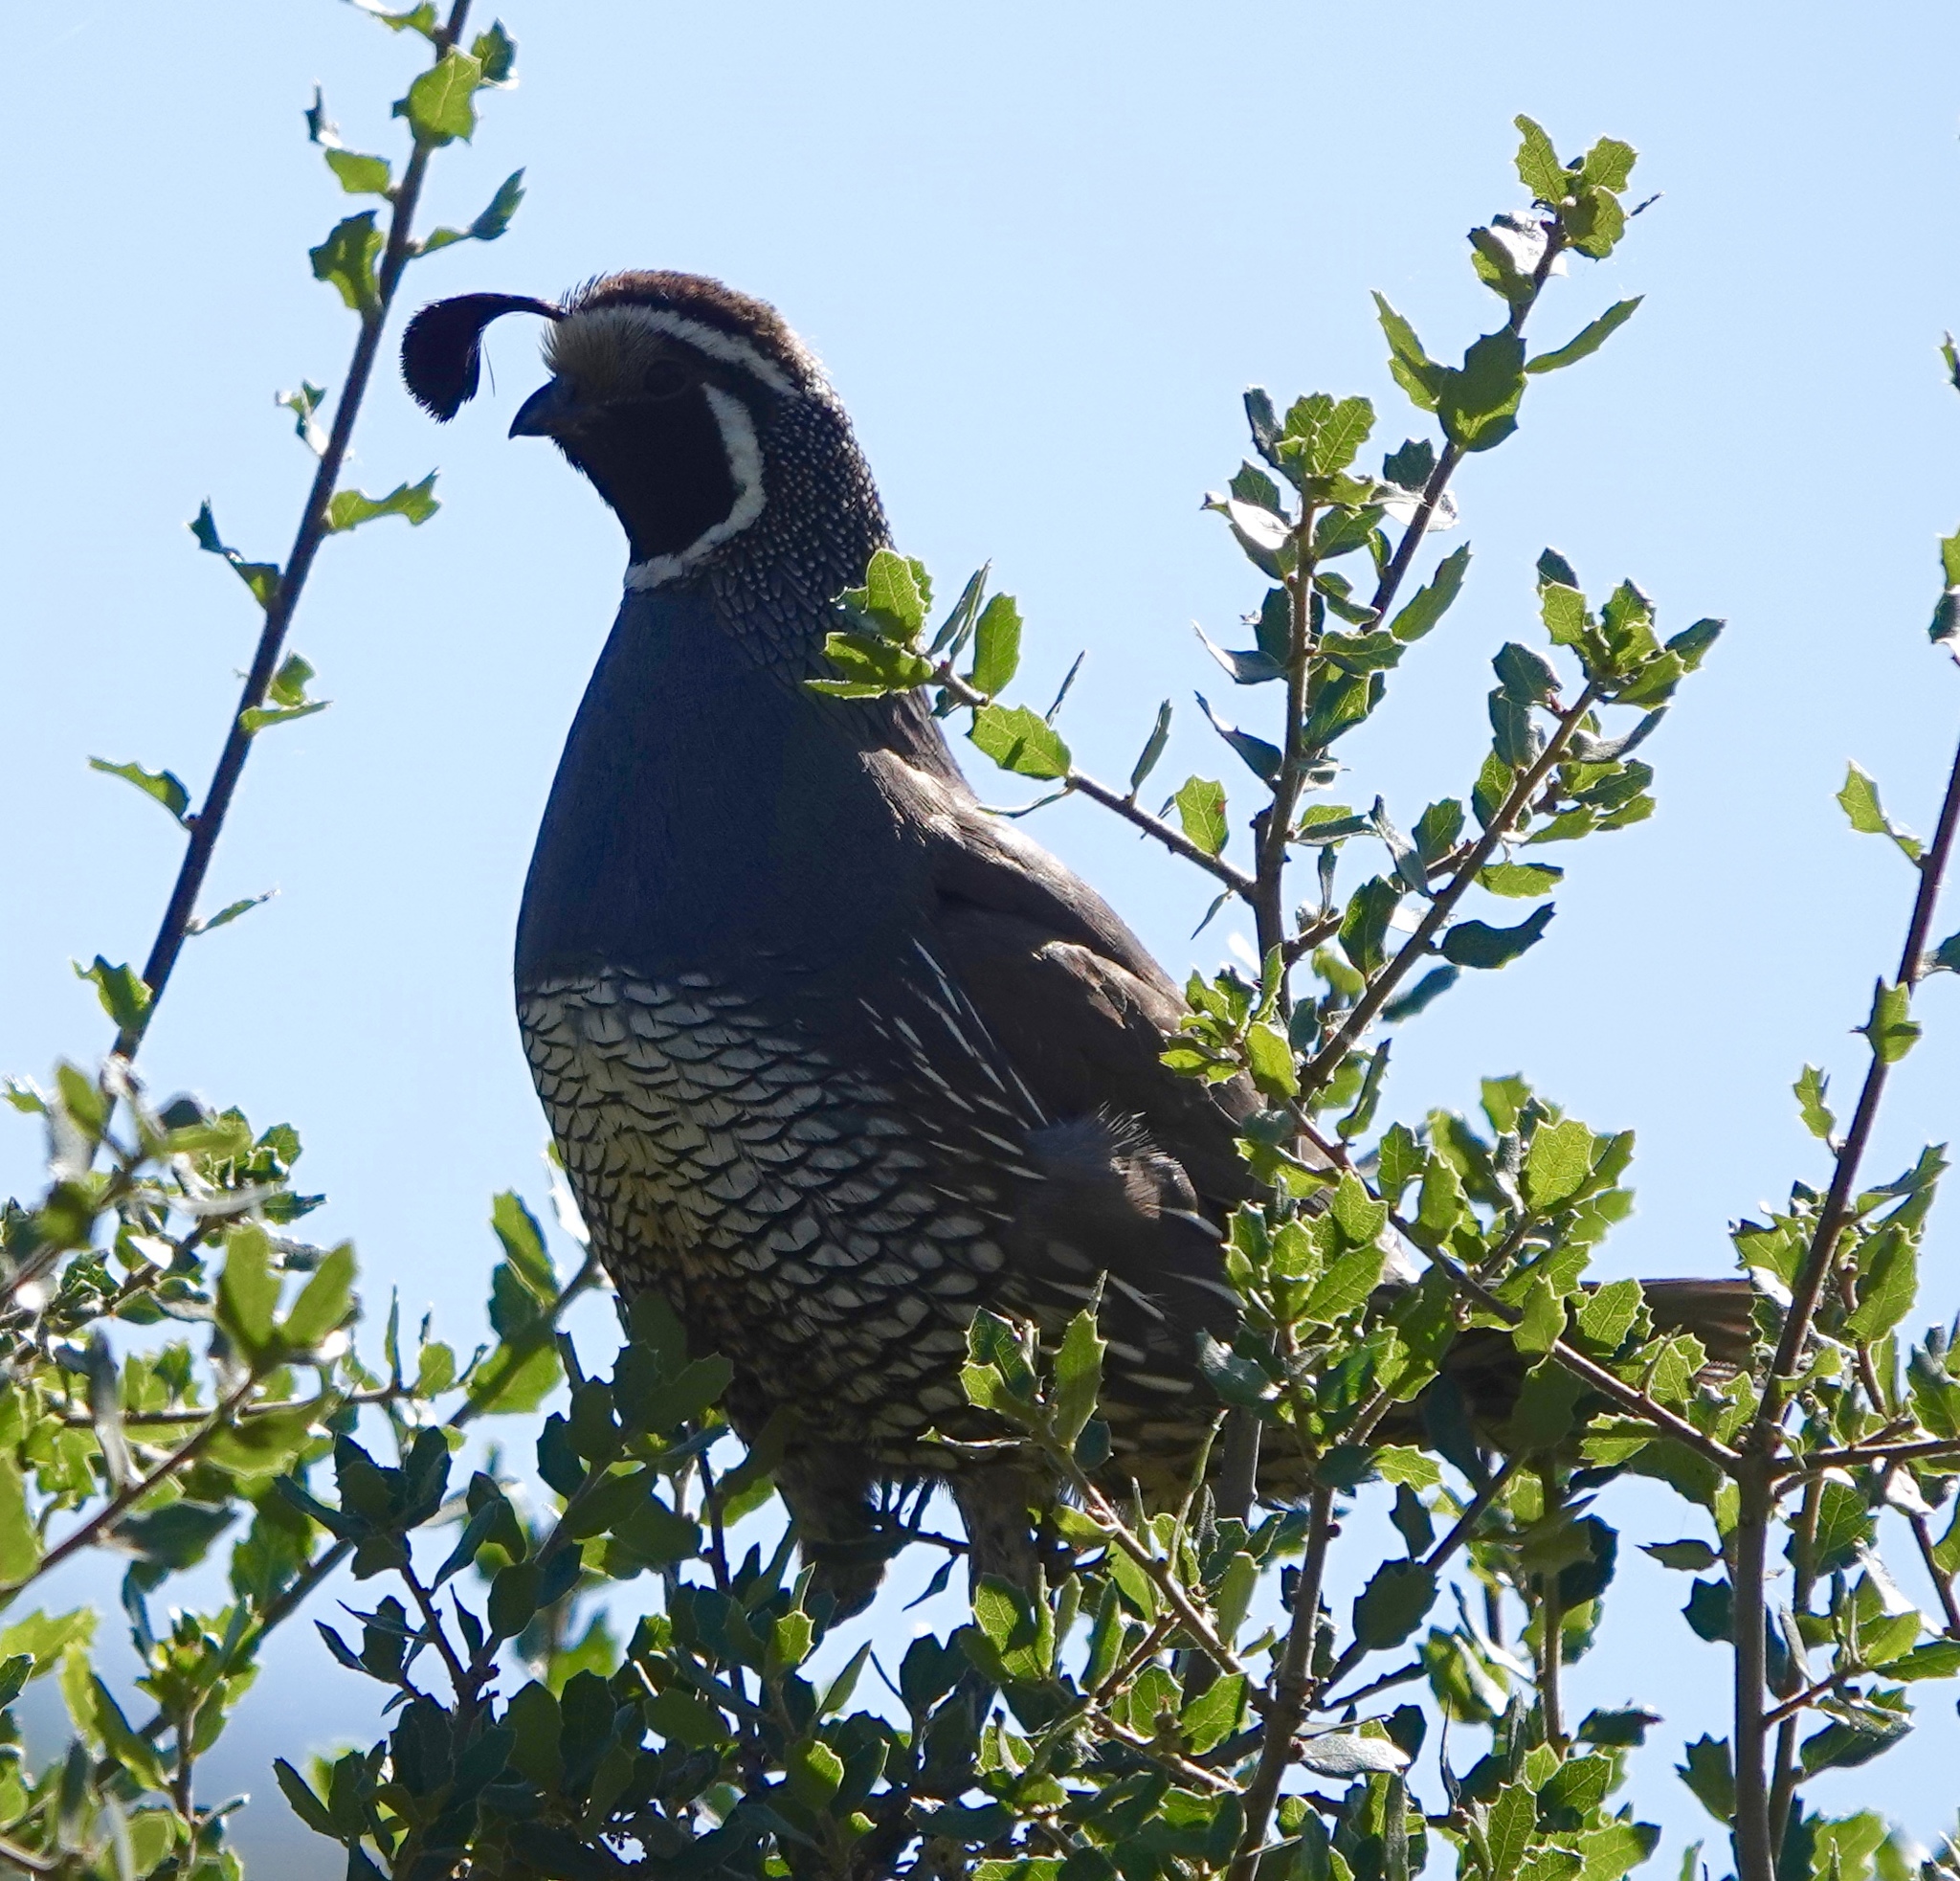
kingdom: Animalia
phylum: Chordata
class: Aves
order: Galliformes
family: Odontophoridae
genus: Callipepla
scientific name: Callipepla californica
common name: California quail
